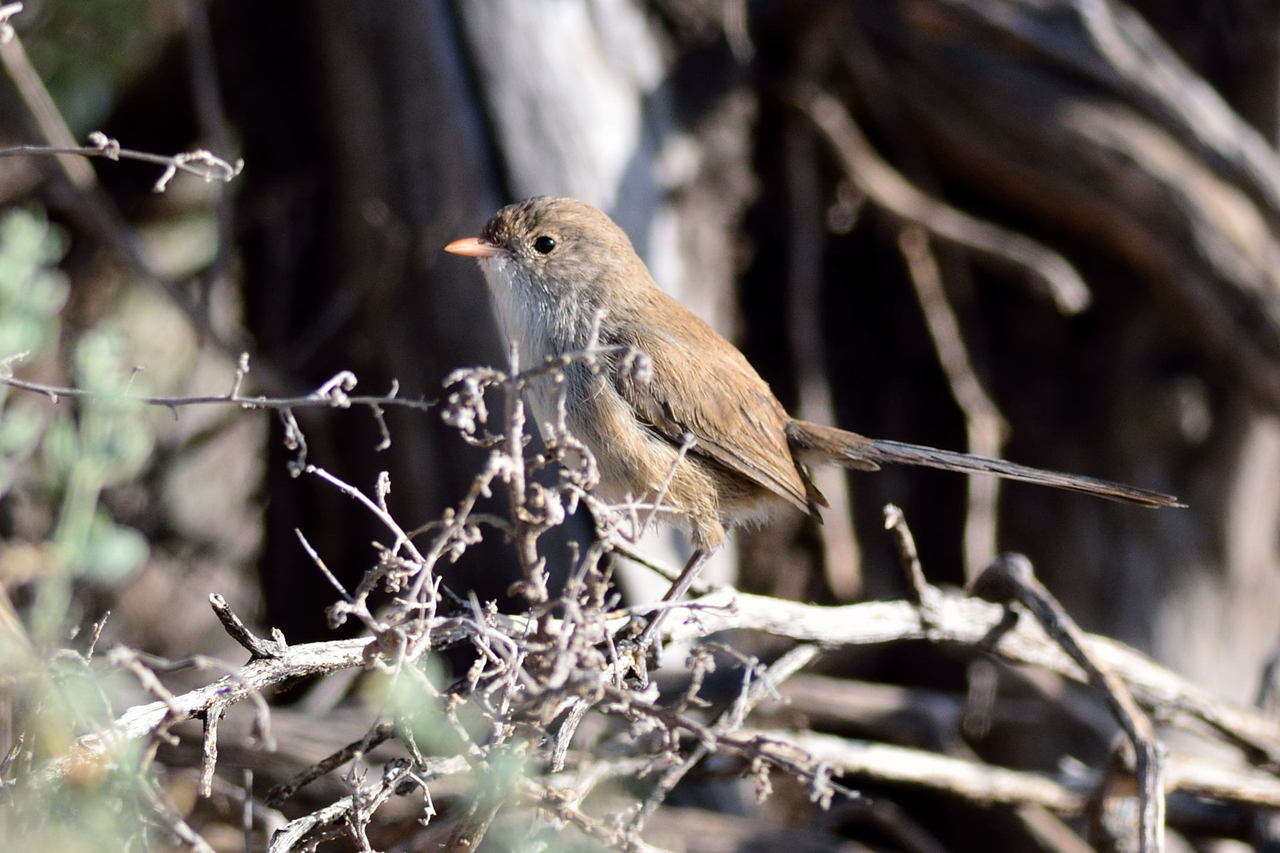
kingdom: Animalia
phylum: Chordata
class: Aves
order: Passeriformes
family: Maluridae
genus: Malurus
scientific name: Malurus leucopterus
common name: White-winged fairywren
